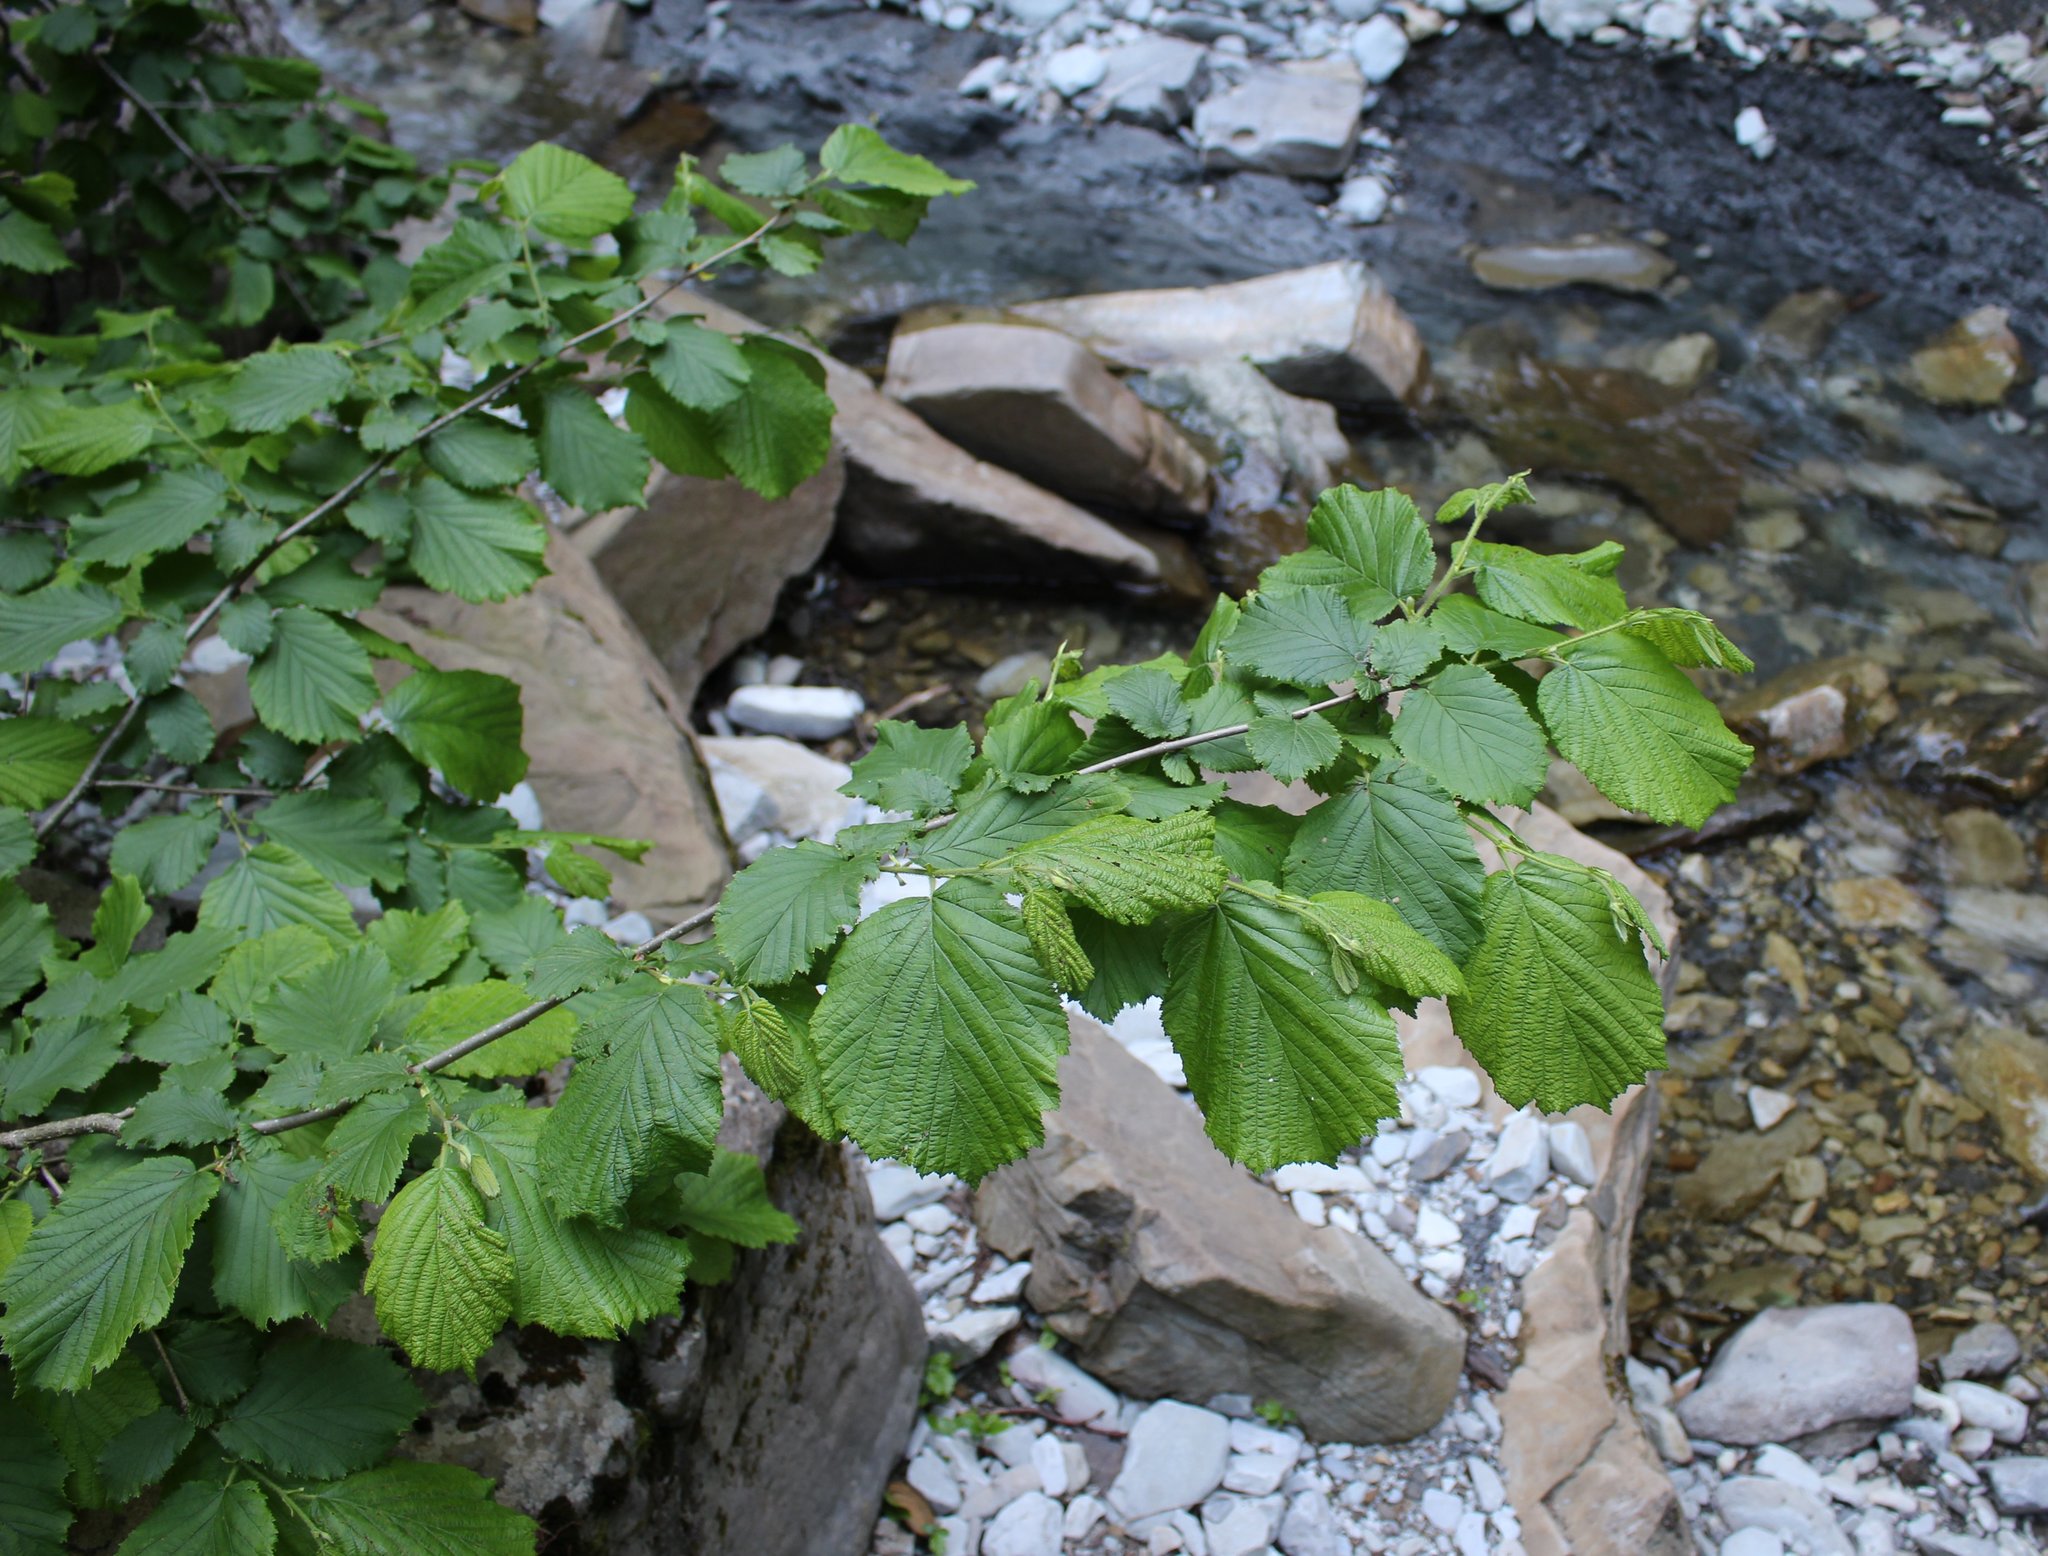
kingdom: Plantae
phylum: Tracheophyta
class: Magnoliopsida
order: Fagales
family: Betulaceae
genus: Corylus
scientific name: Corylus avellana
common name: European hazel
